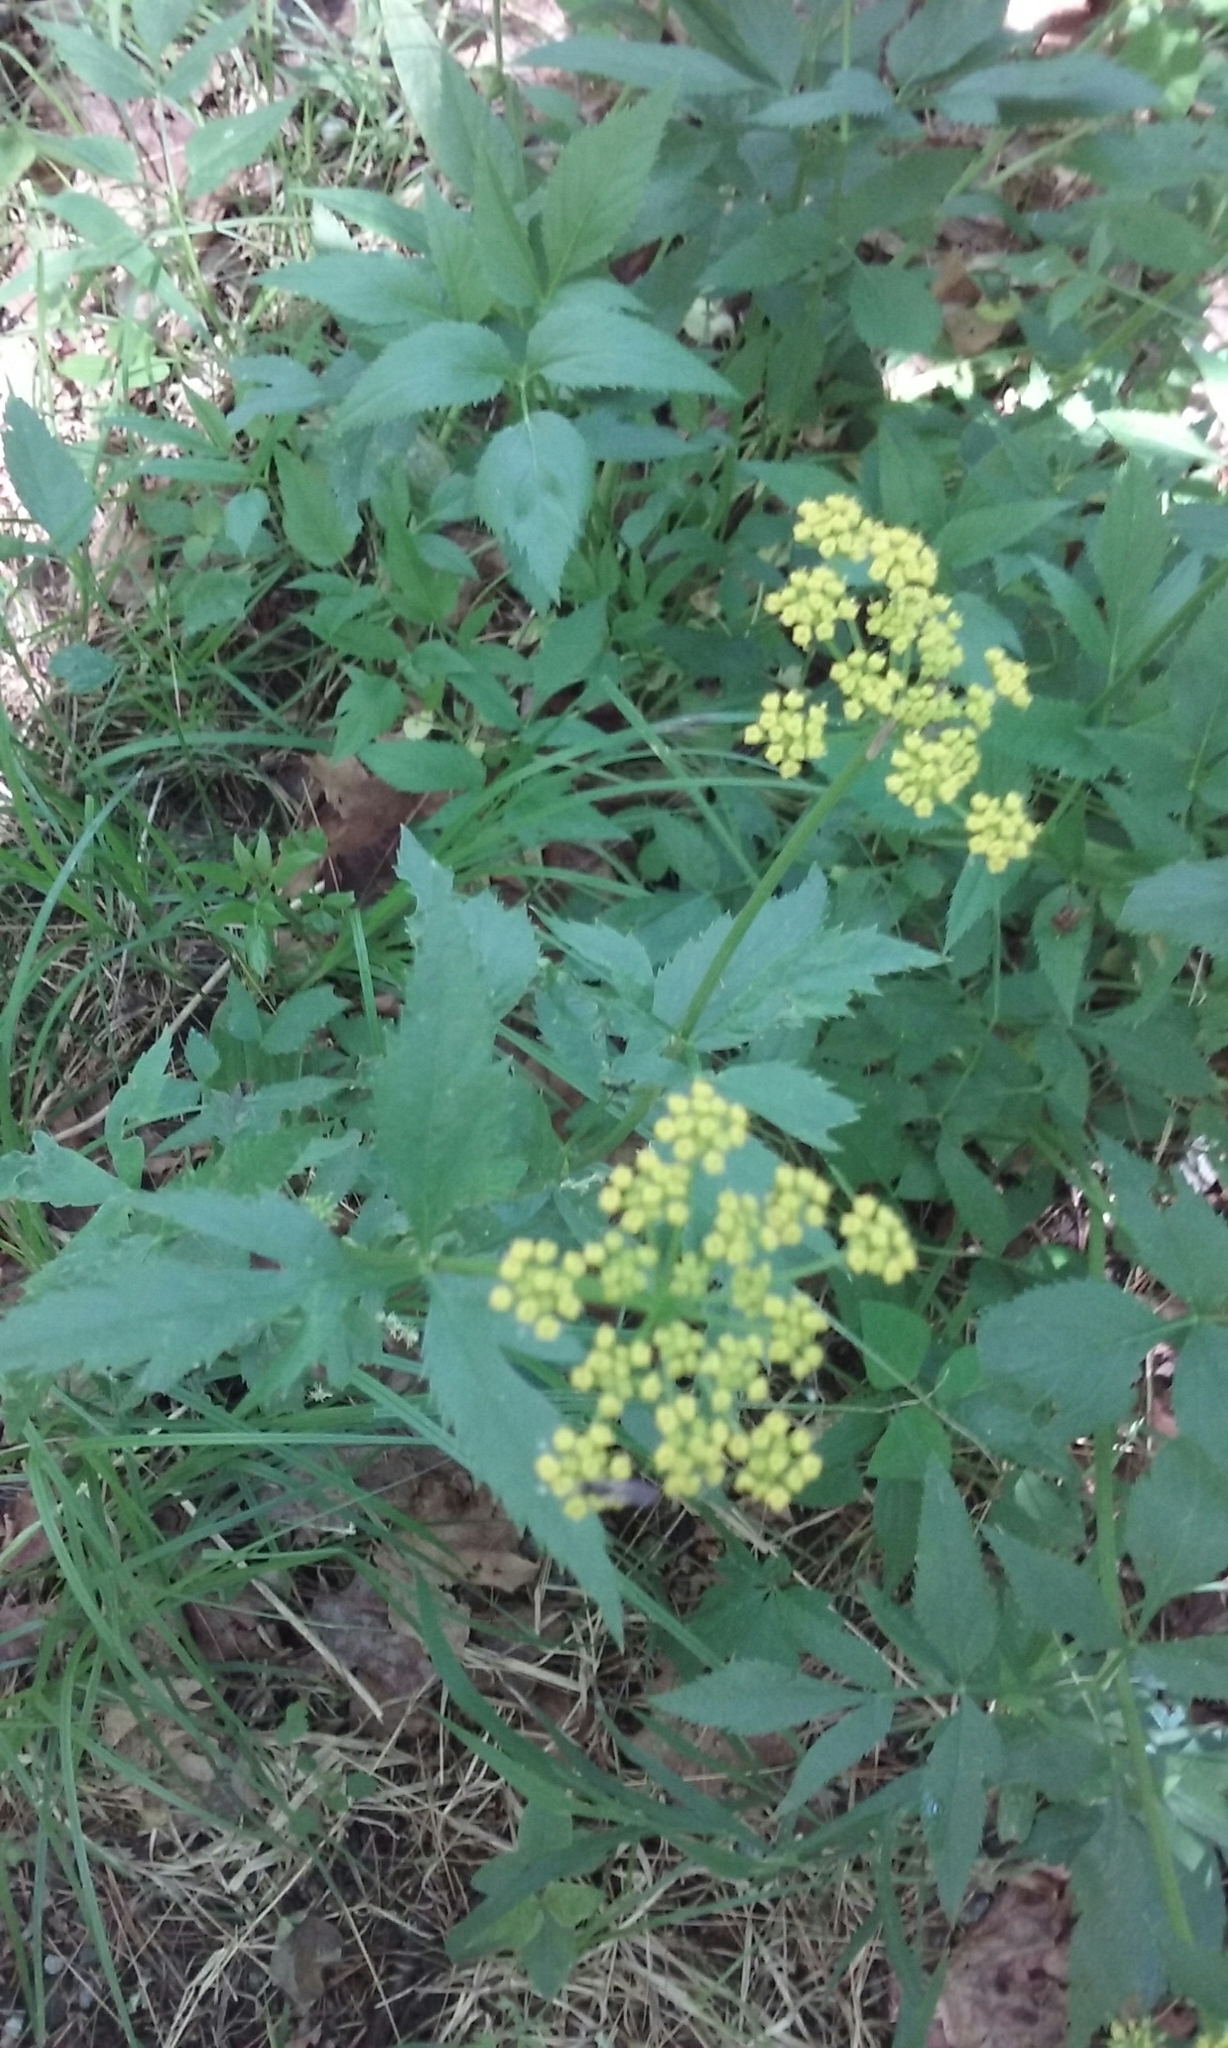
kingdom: Plantae
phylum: Tracheophyta
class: Magnoliopsida
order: Apiales
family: Apiaceae
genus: Zizia
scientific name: Zizia aurea
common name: Golden alexanders
